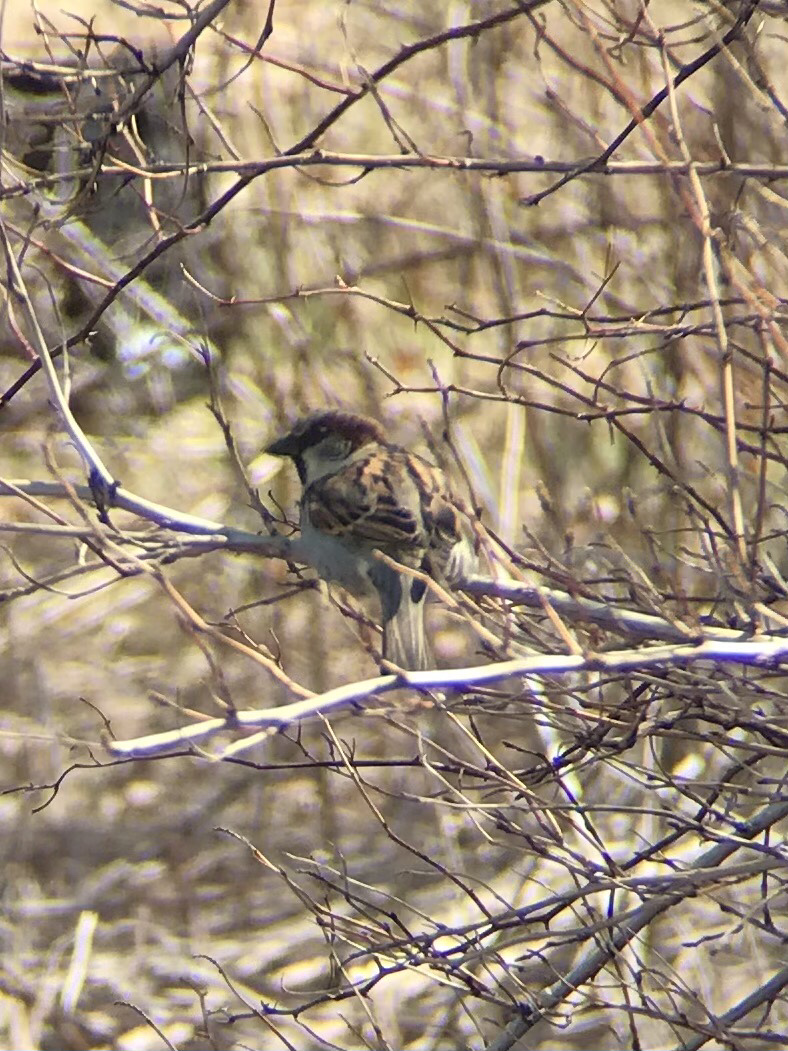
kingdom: Animalia
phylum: Chordata
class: Aves
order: Passeriformes
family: Passeridae
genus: Passer
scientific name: Passer domesticus
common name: House sparrow
